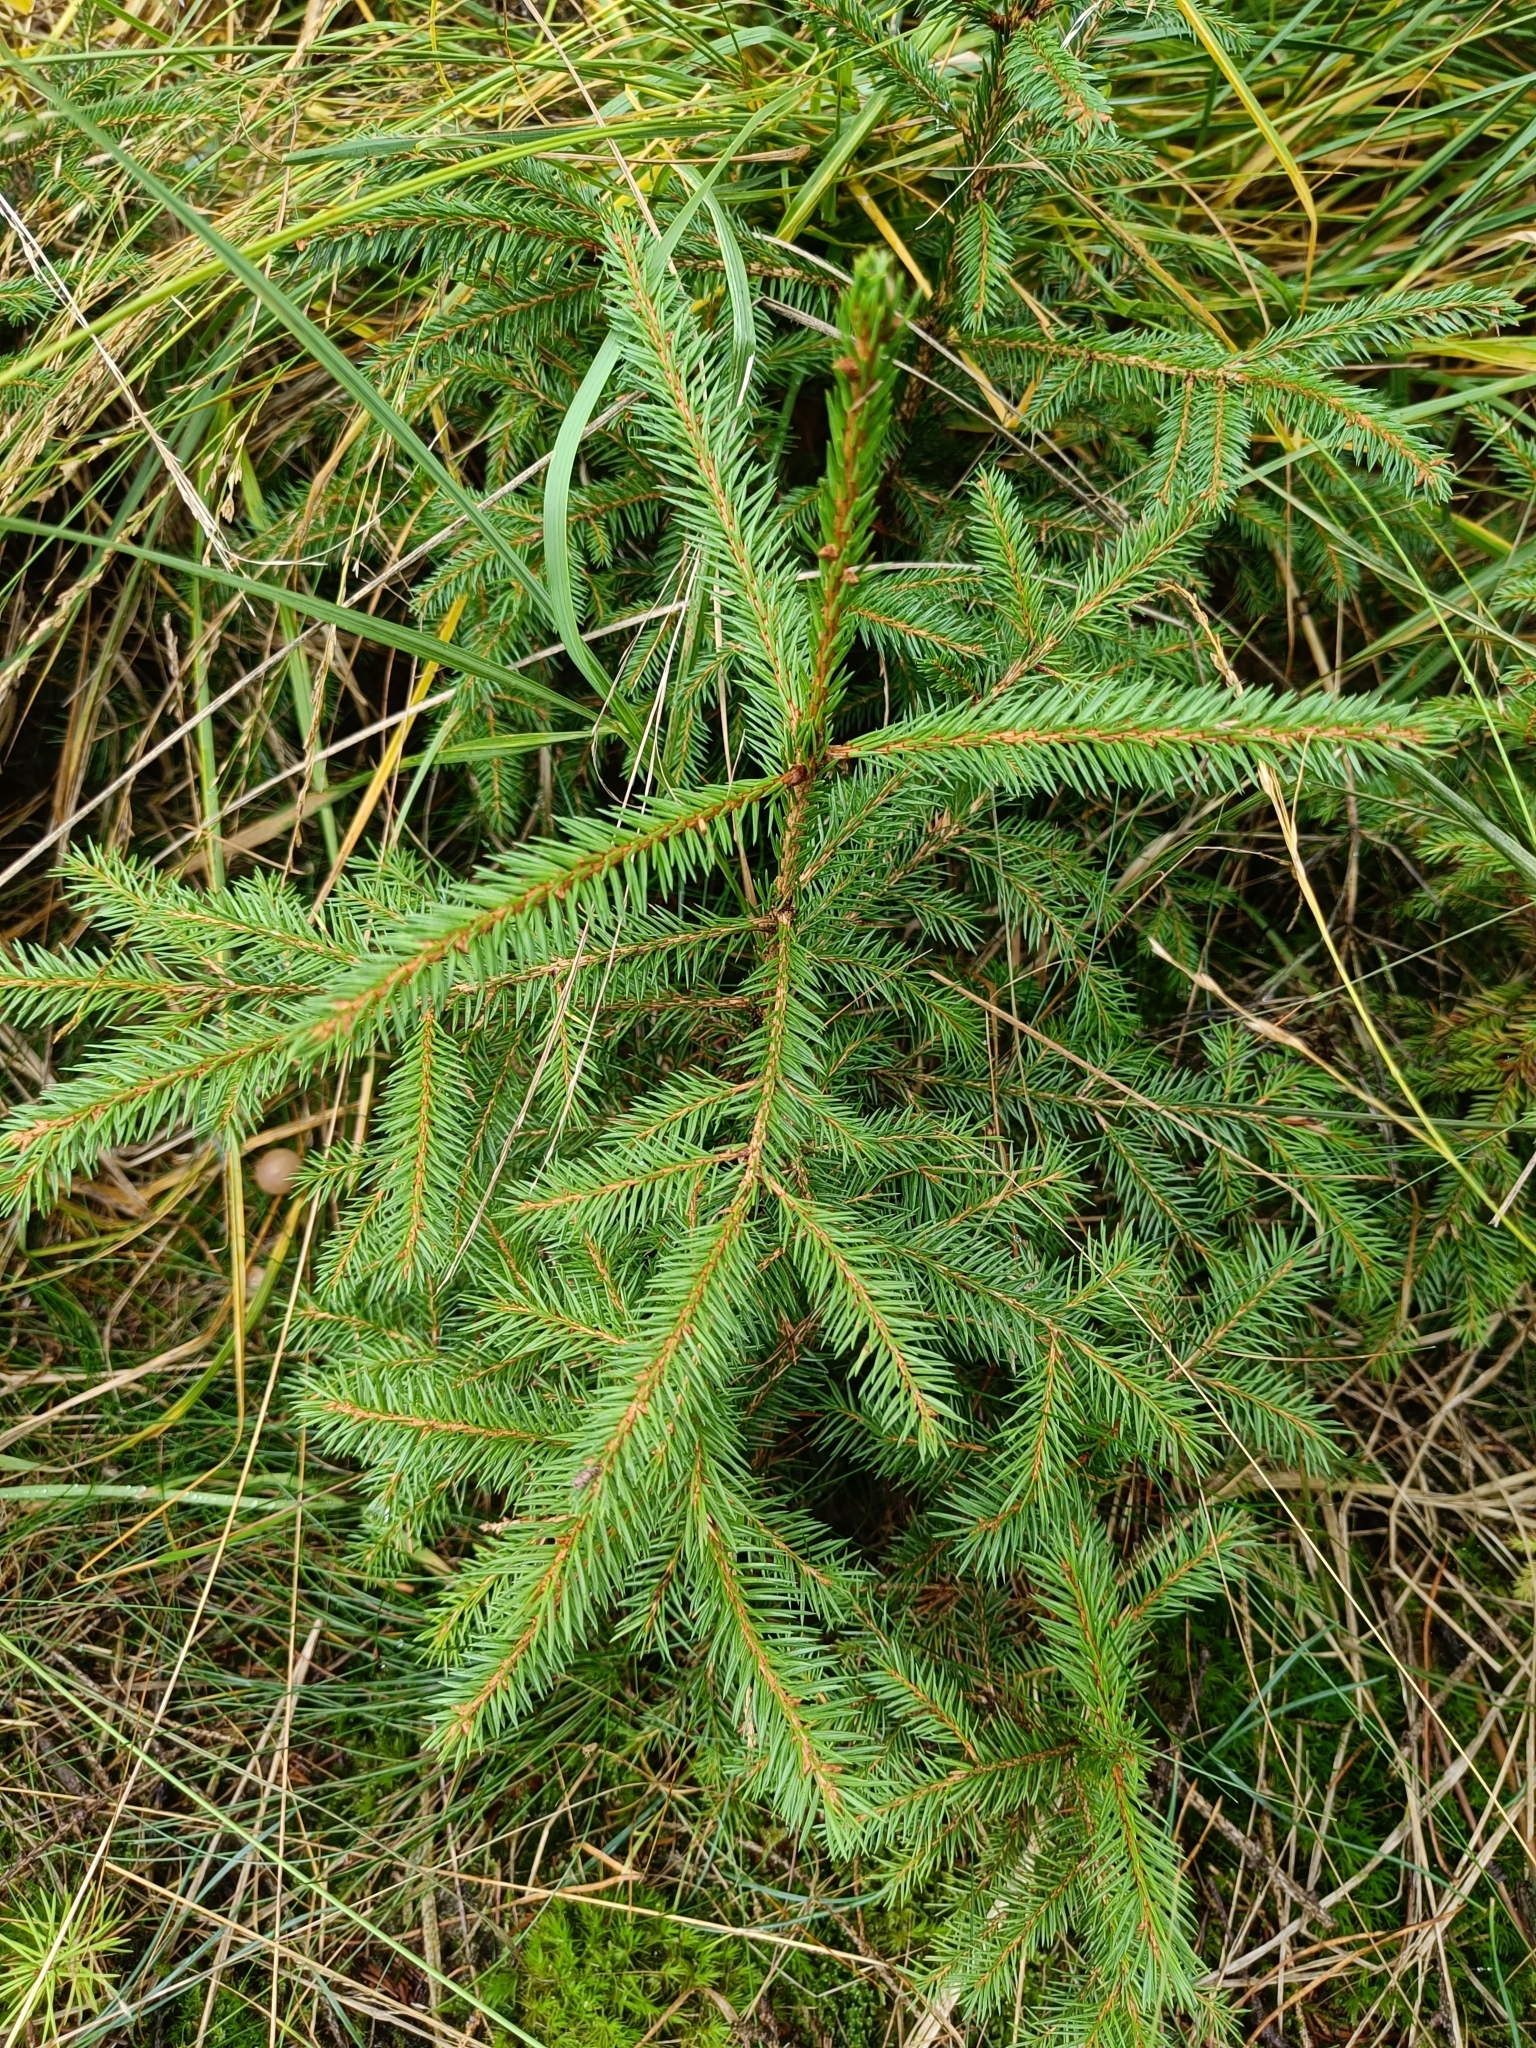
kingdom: Plantae
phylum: Tracheophyta
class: Pinopsida
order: Pinales
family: Pinaceae
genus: Picea
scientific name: Picea abies
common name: Norway spruce
